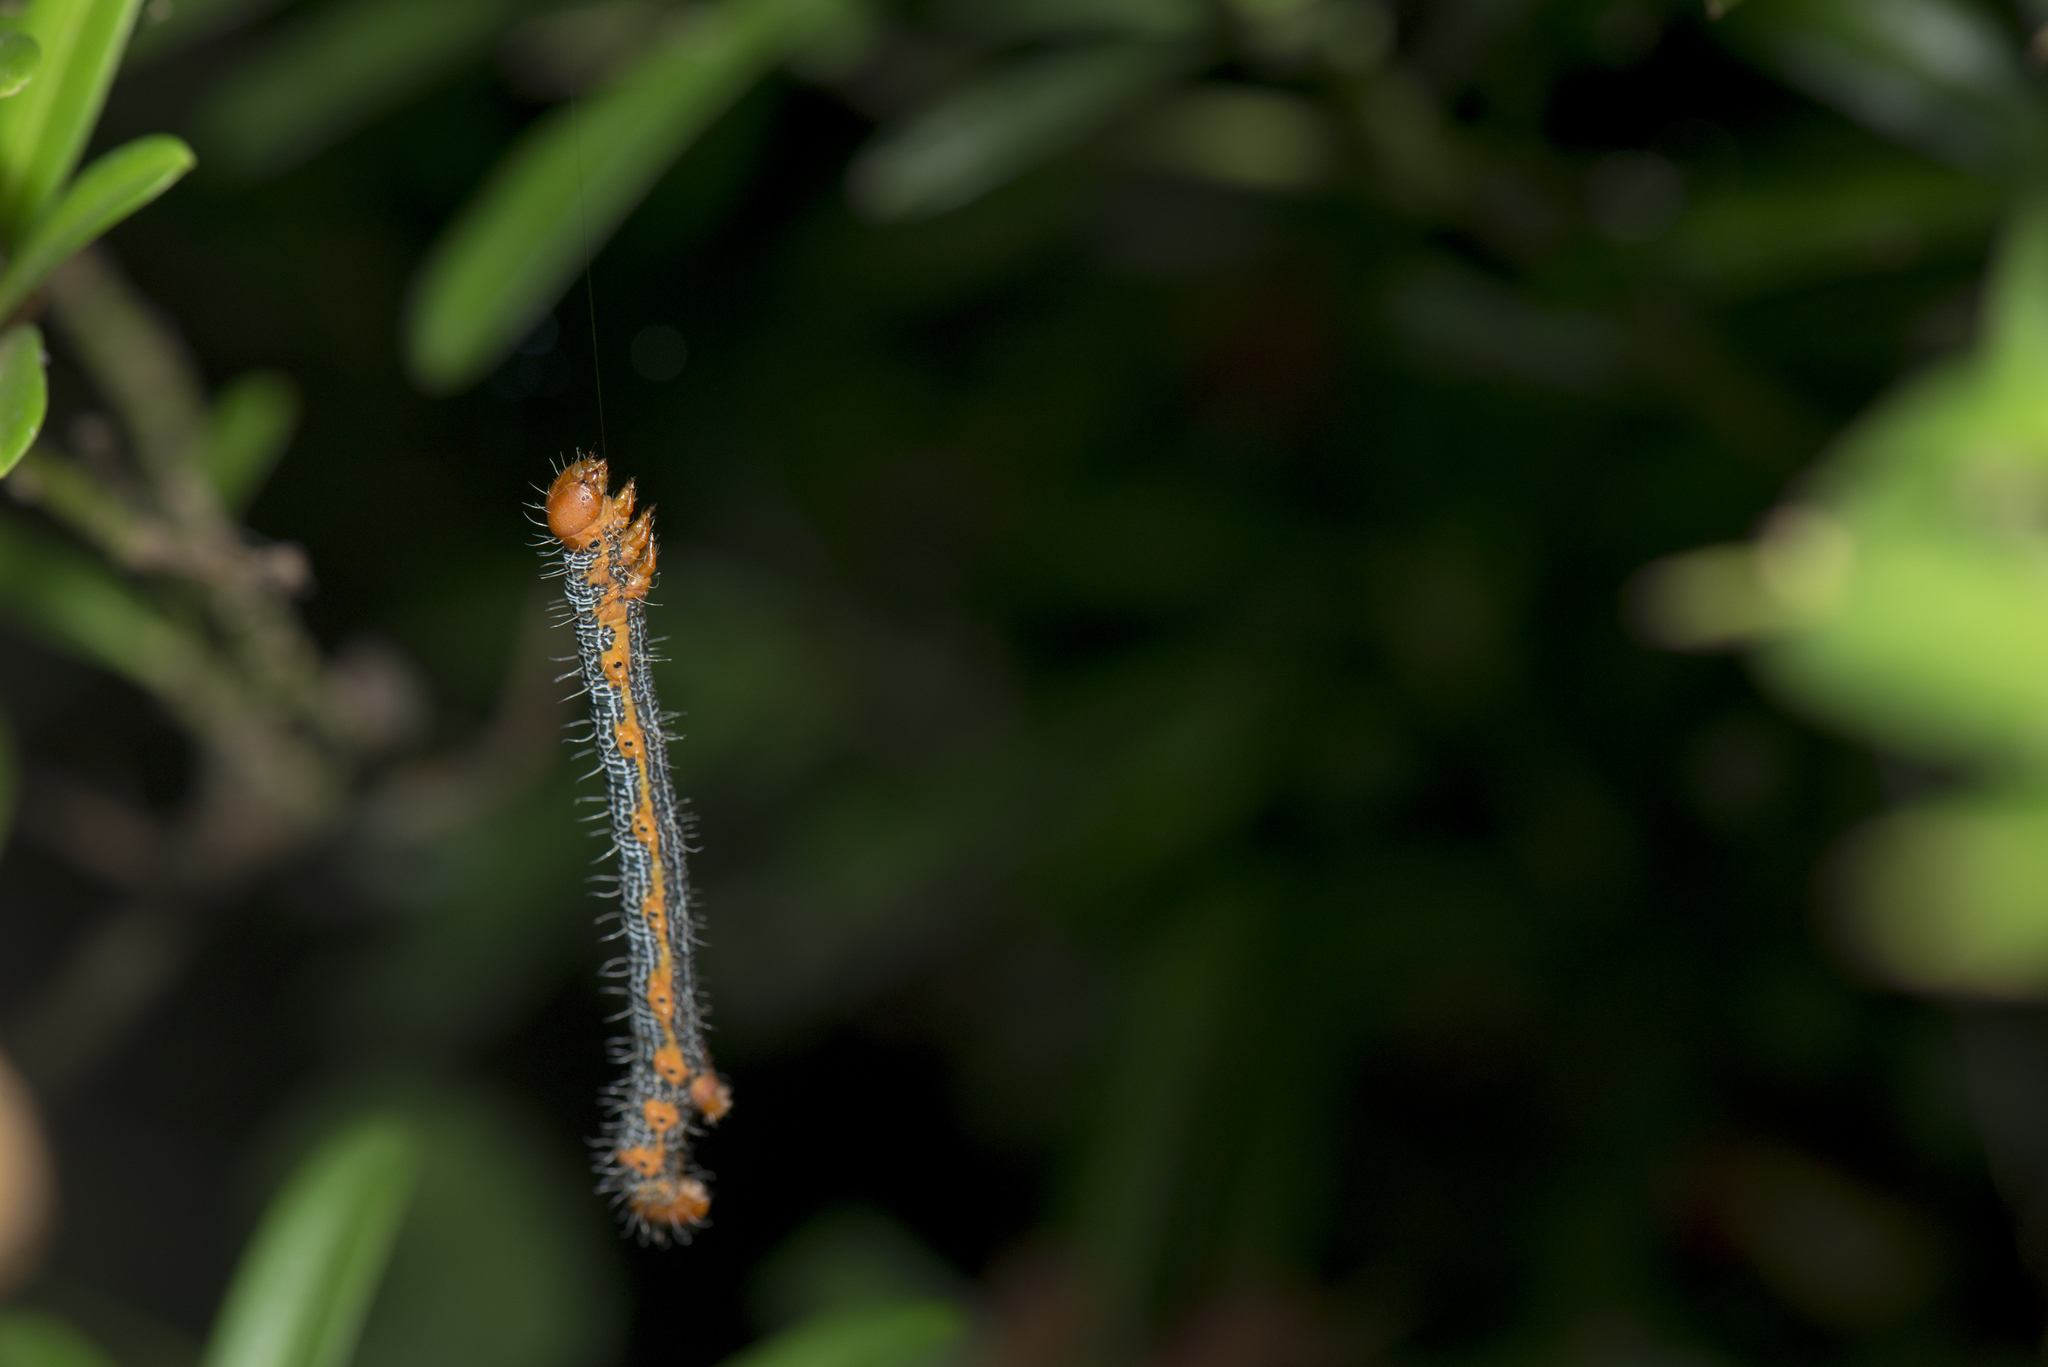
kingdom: Animalia
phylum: Arthropoda
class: Insecta
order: Lepidoptera
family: Geometridae
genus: Milionia
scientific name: Milionia basalis
